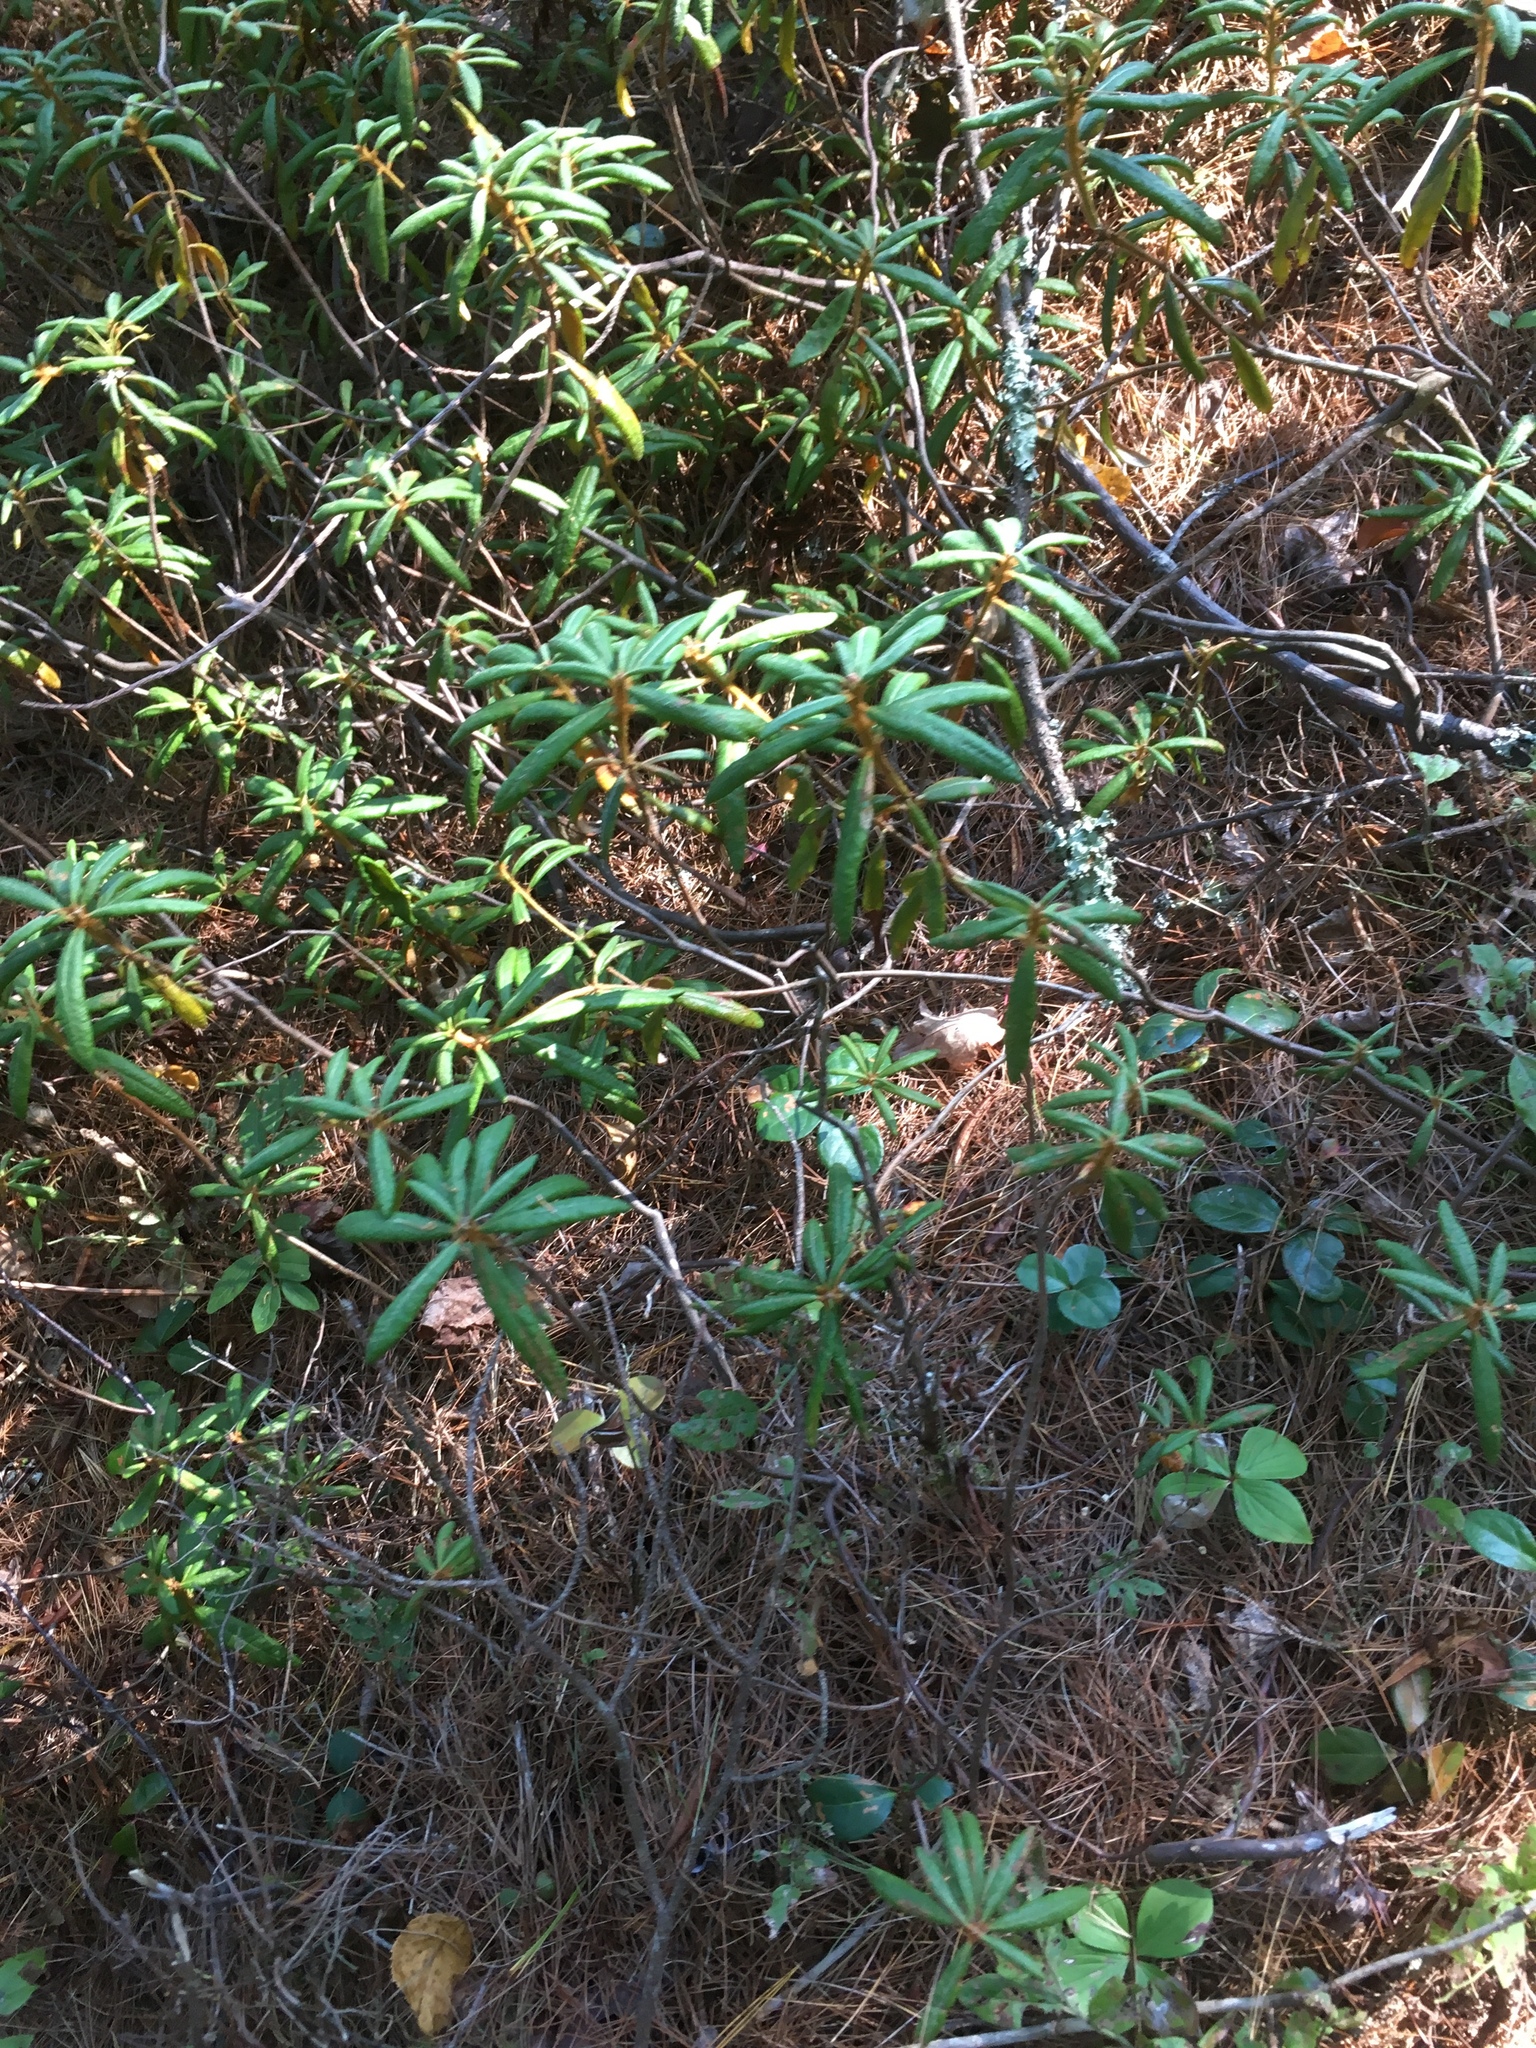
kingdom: Plantae
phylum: Tracheophyta
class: Magnoliopsida
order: Ericales
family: Ericaceae
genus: Rhododendron
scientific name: Rhododendron groenlandicum
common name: Bog labrador tea
